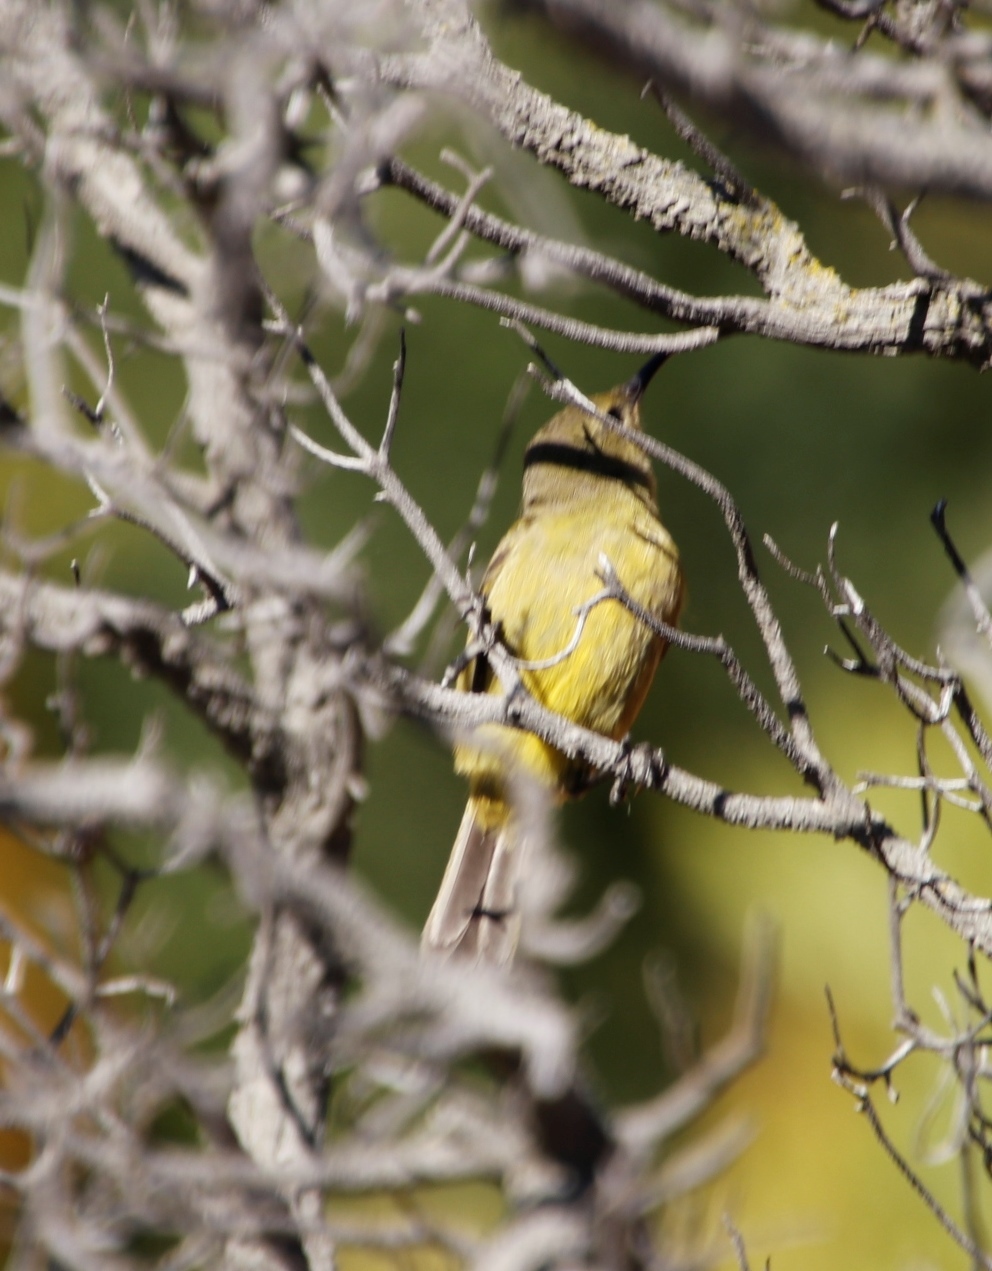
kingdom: Animalia
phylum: Chordata
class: Aves
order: Passeriformes
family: Nectariniidae
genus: Anthobaphes
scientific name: Anthobaphes violacea
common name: Orange-breasted sunbird
